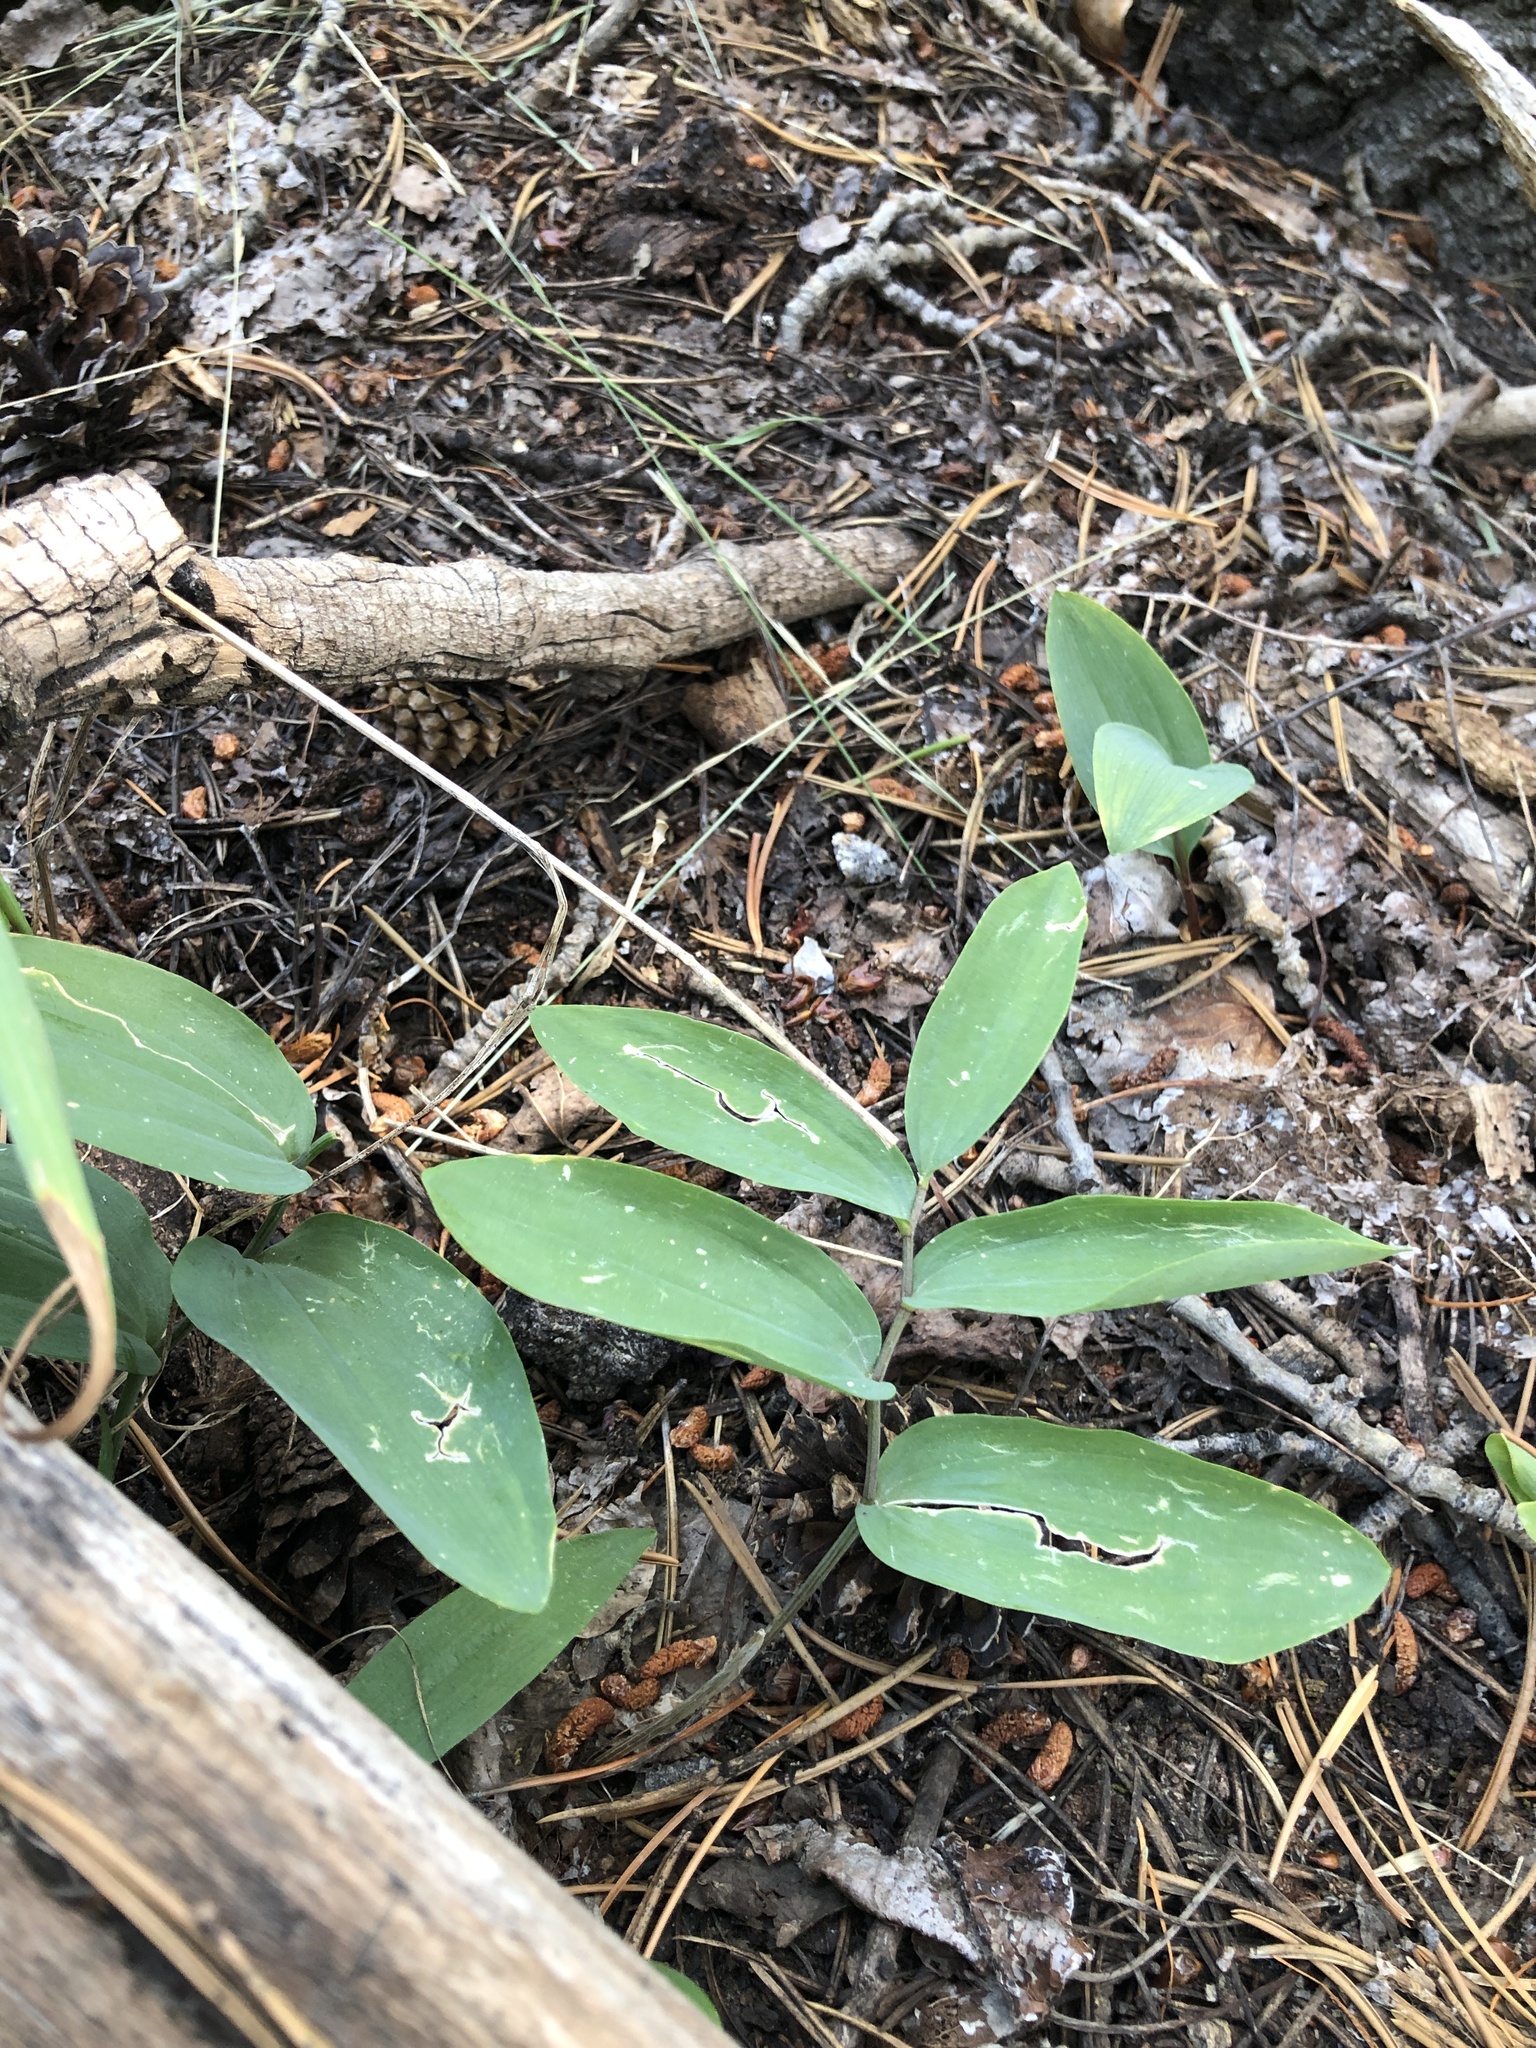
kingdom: Plantae
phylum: Tracheophyta
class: Liliopsida
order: Asparagales
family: Asparagaceae
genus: Maianthemum
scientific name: Maianthemum racemosum
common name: False spikenard
